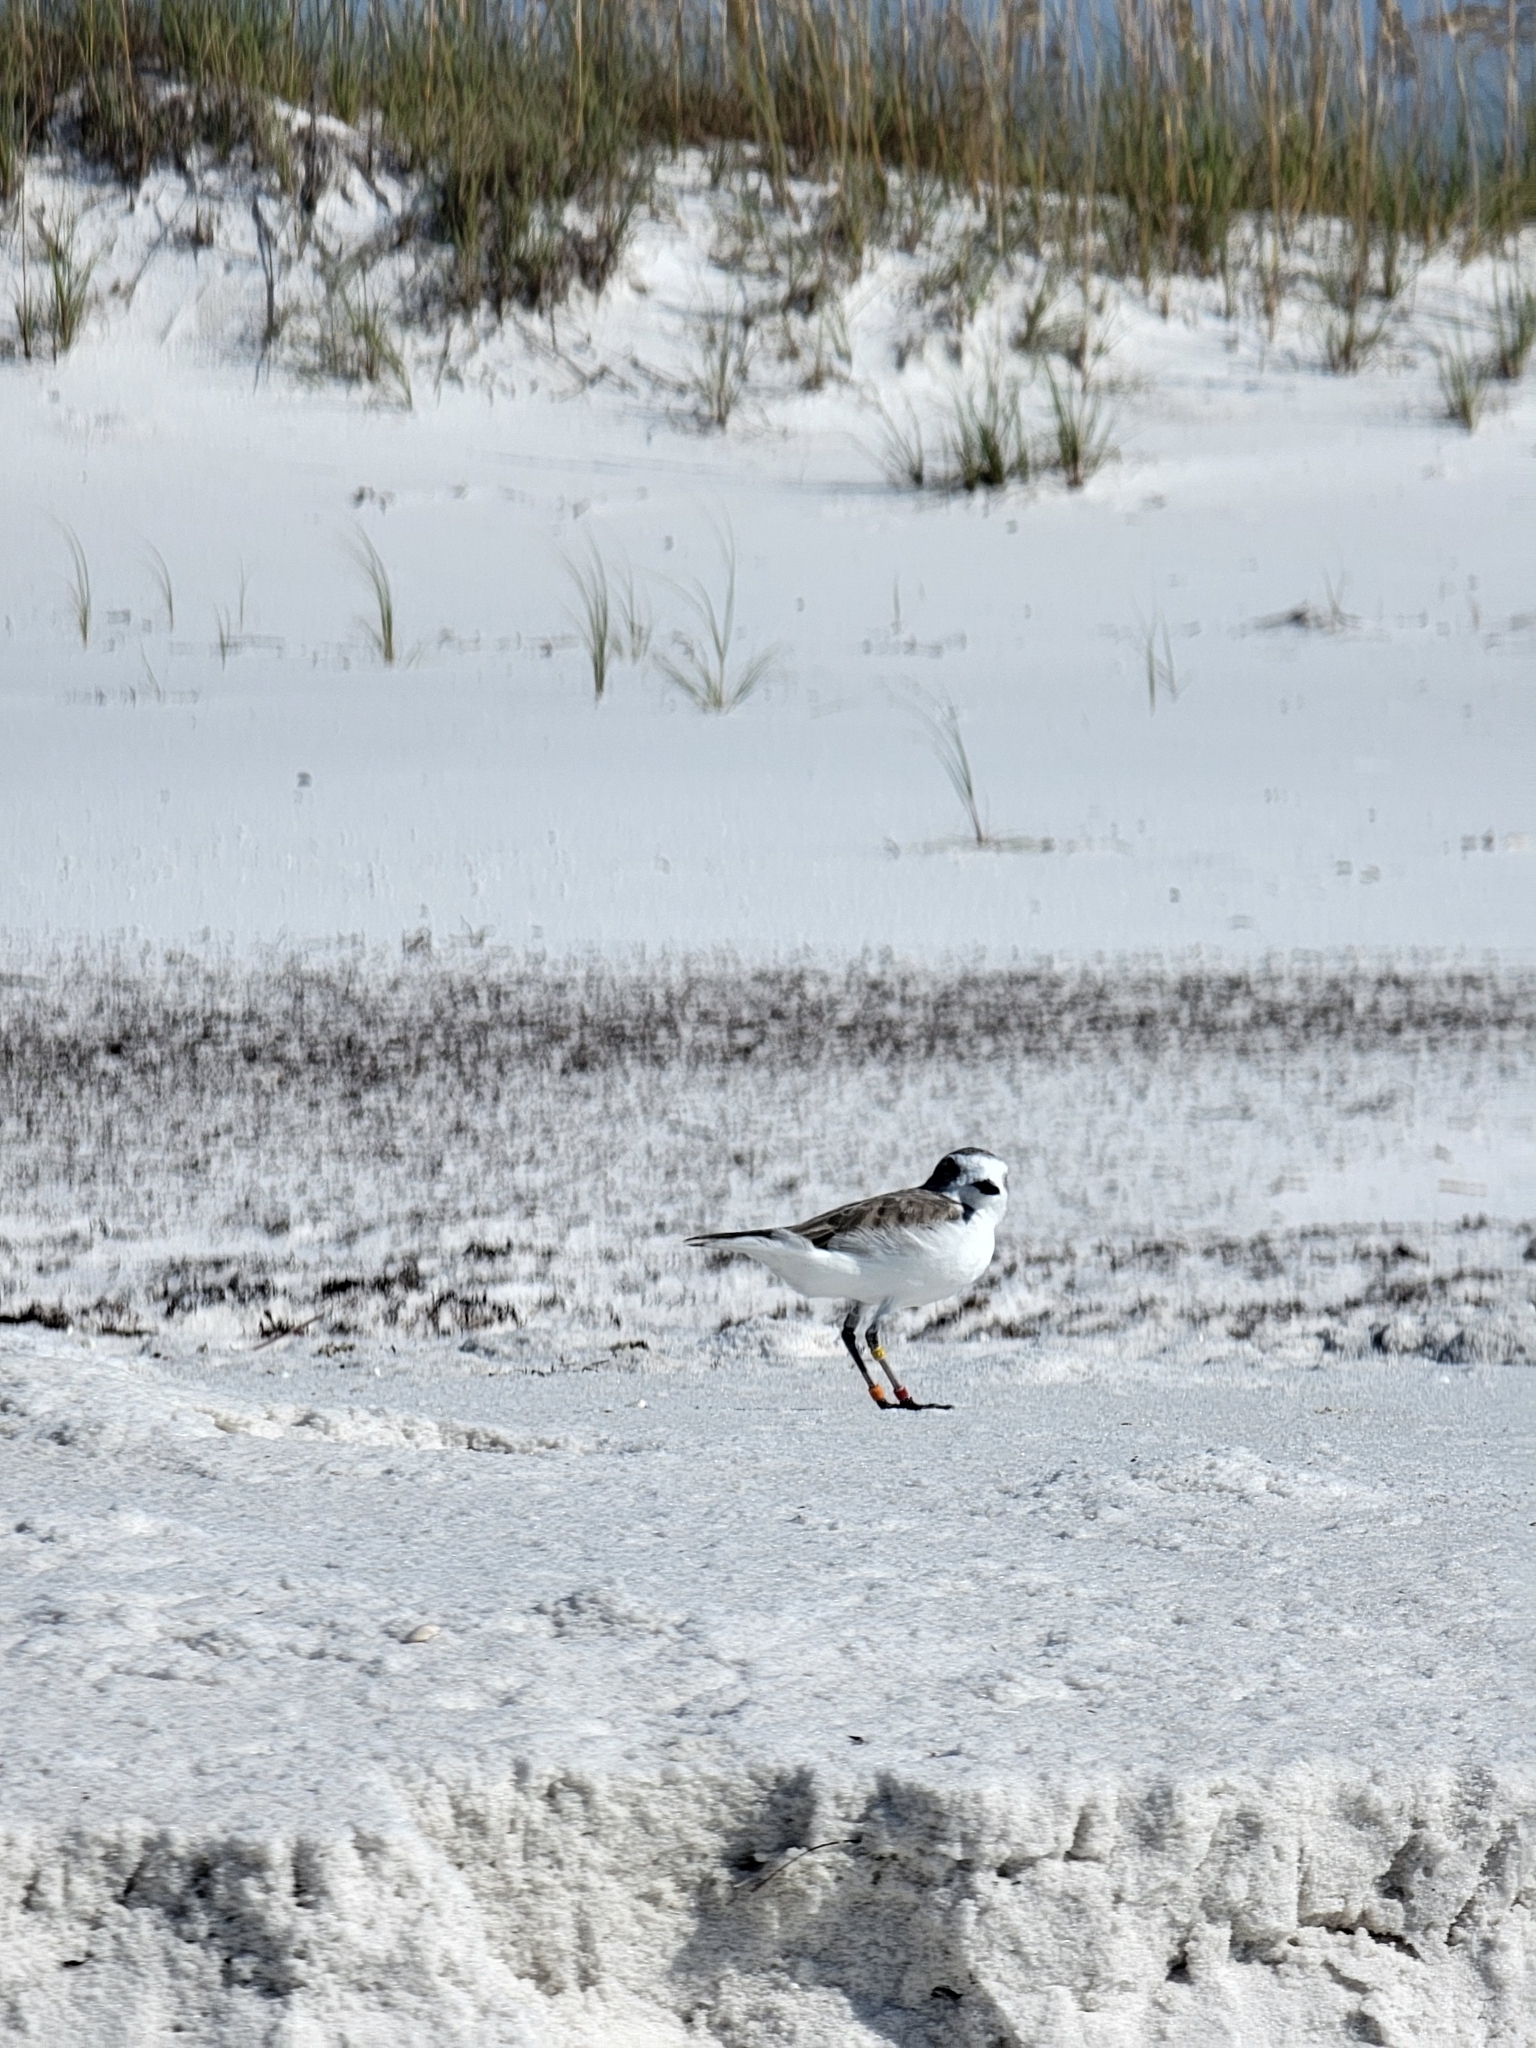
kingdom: Animalia
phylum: Chordata
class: Aves
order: Charadriiformes
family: Charadriidae
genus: Anarhynchus
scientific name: Anarhynchus
